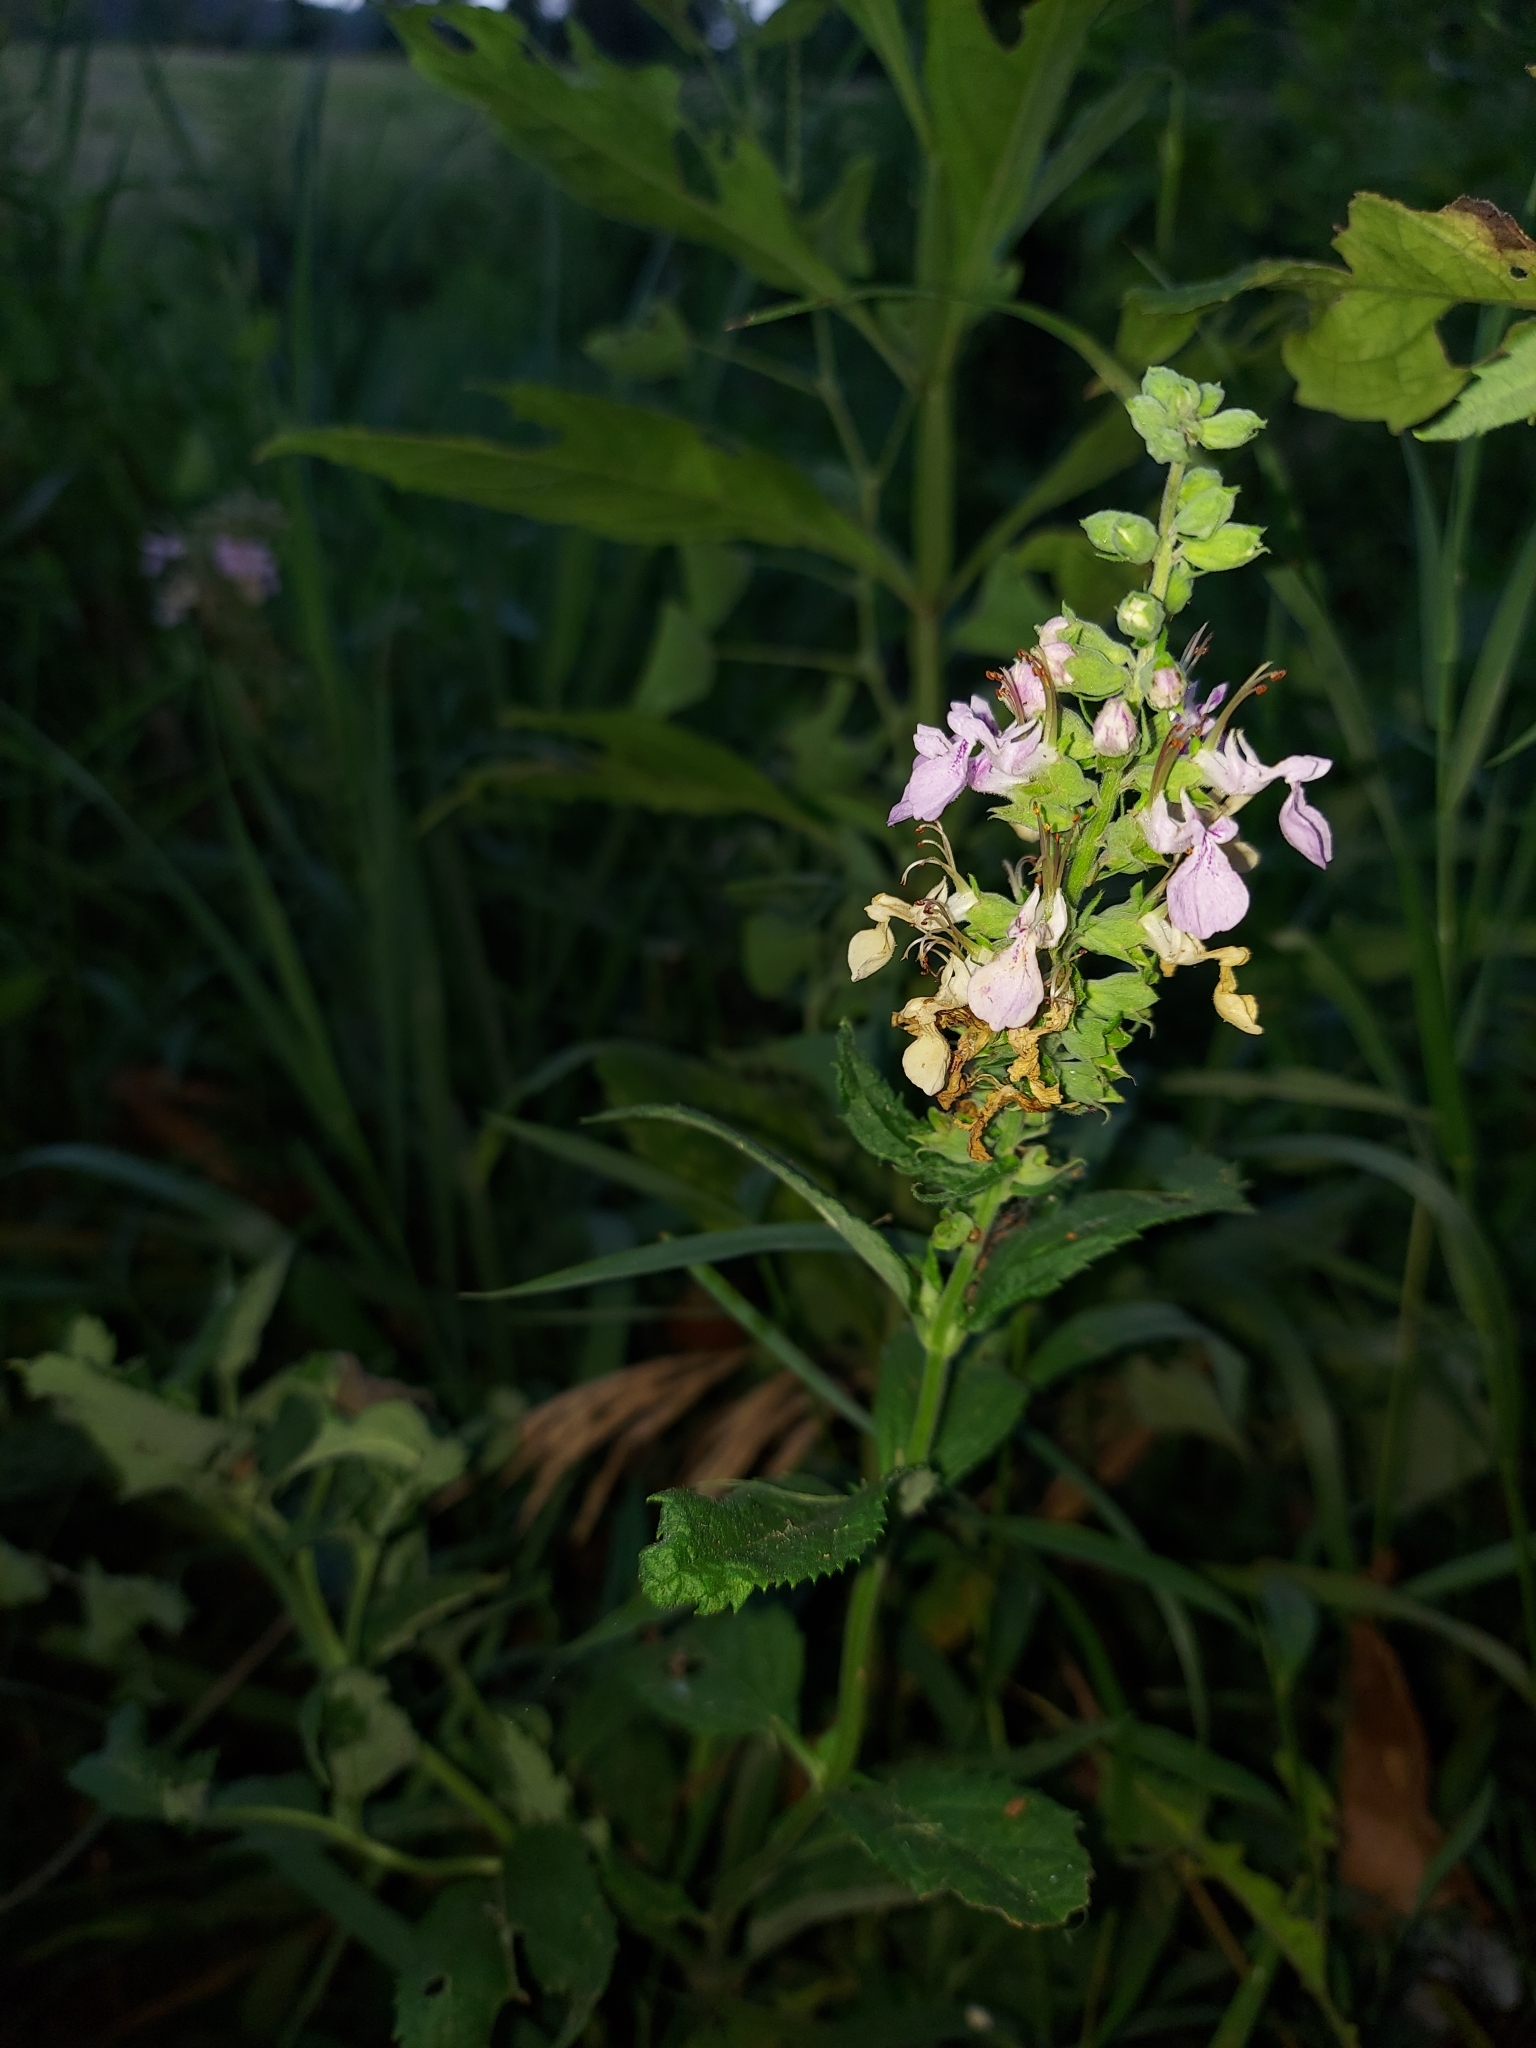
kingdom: Plantae
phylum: Tracheophyta
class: Magnoliopsida
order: Lamiales
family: Lamiaceae
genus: Teucrium
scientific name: Teucrium canadense
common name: American germander
